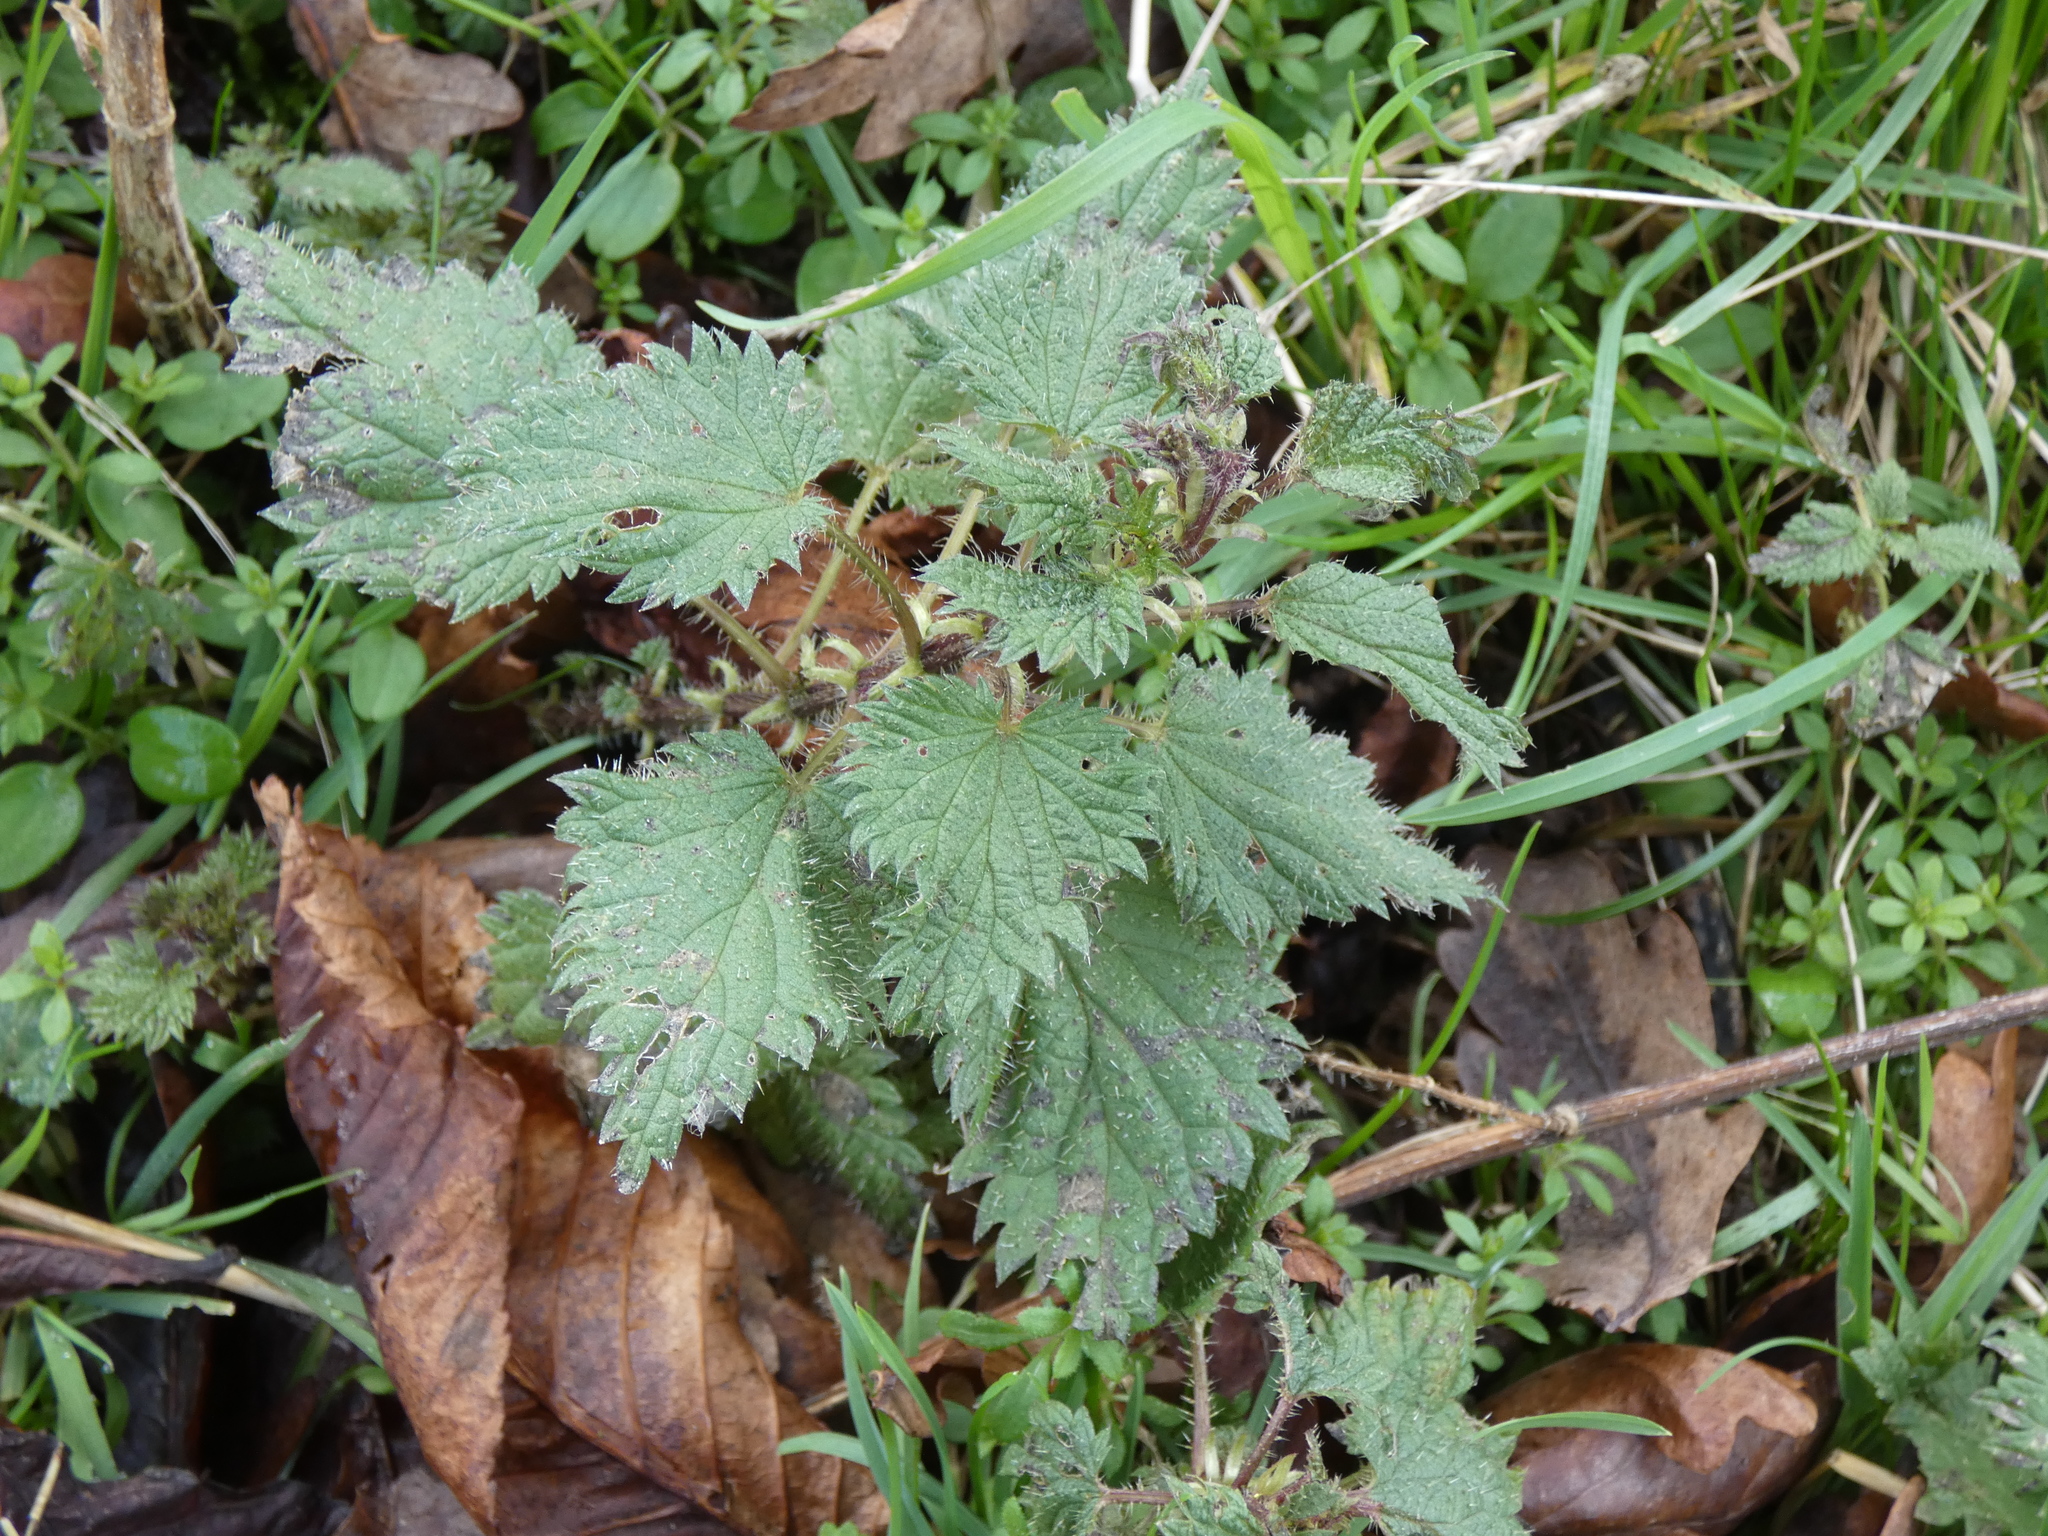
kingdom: Plantae
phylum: Tracheophyta
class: Magnoliopsida
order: Rosales
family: Urticaceae
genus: Urtica
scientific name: Urtica dioica
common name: Common nettle
